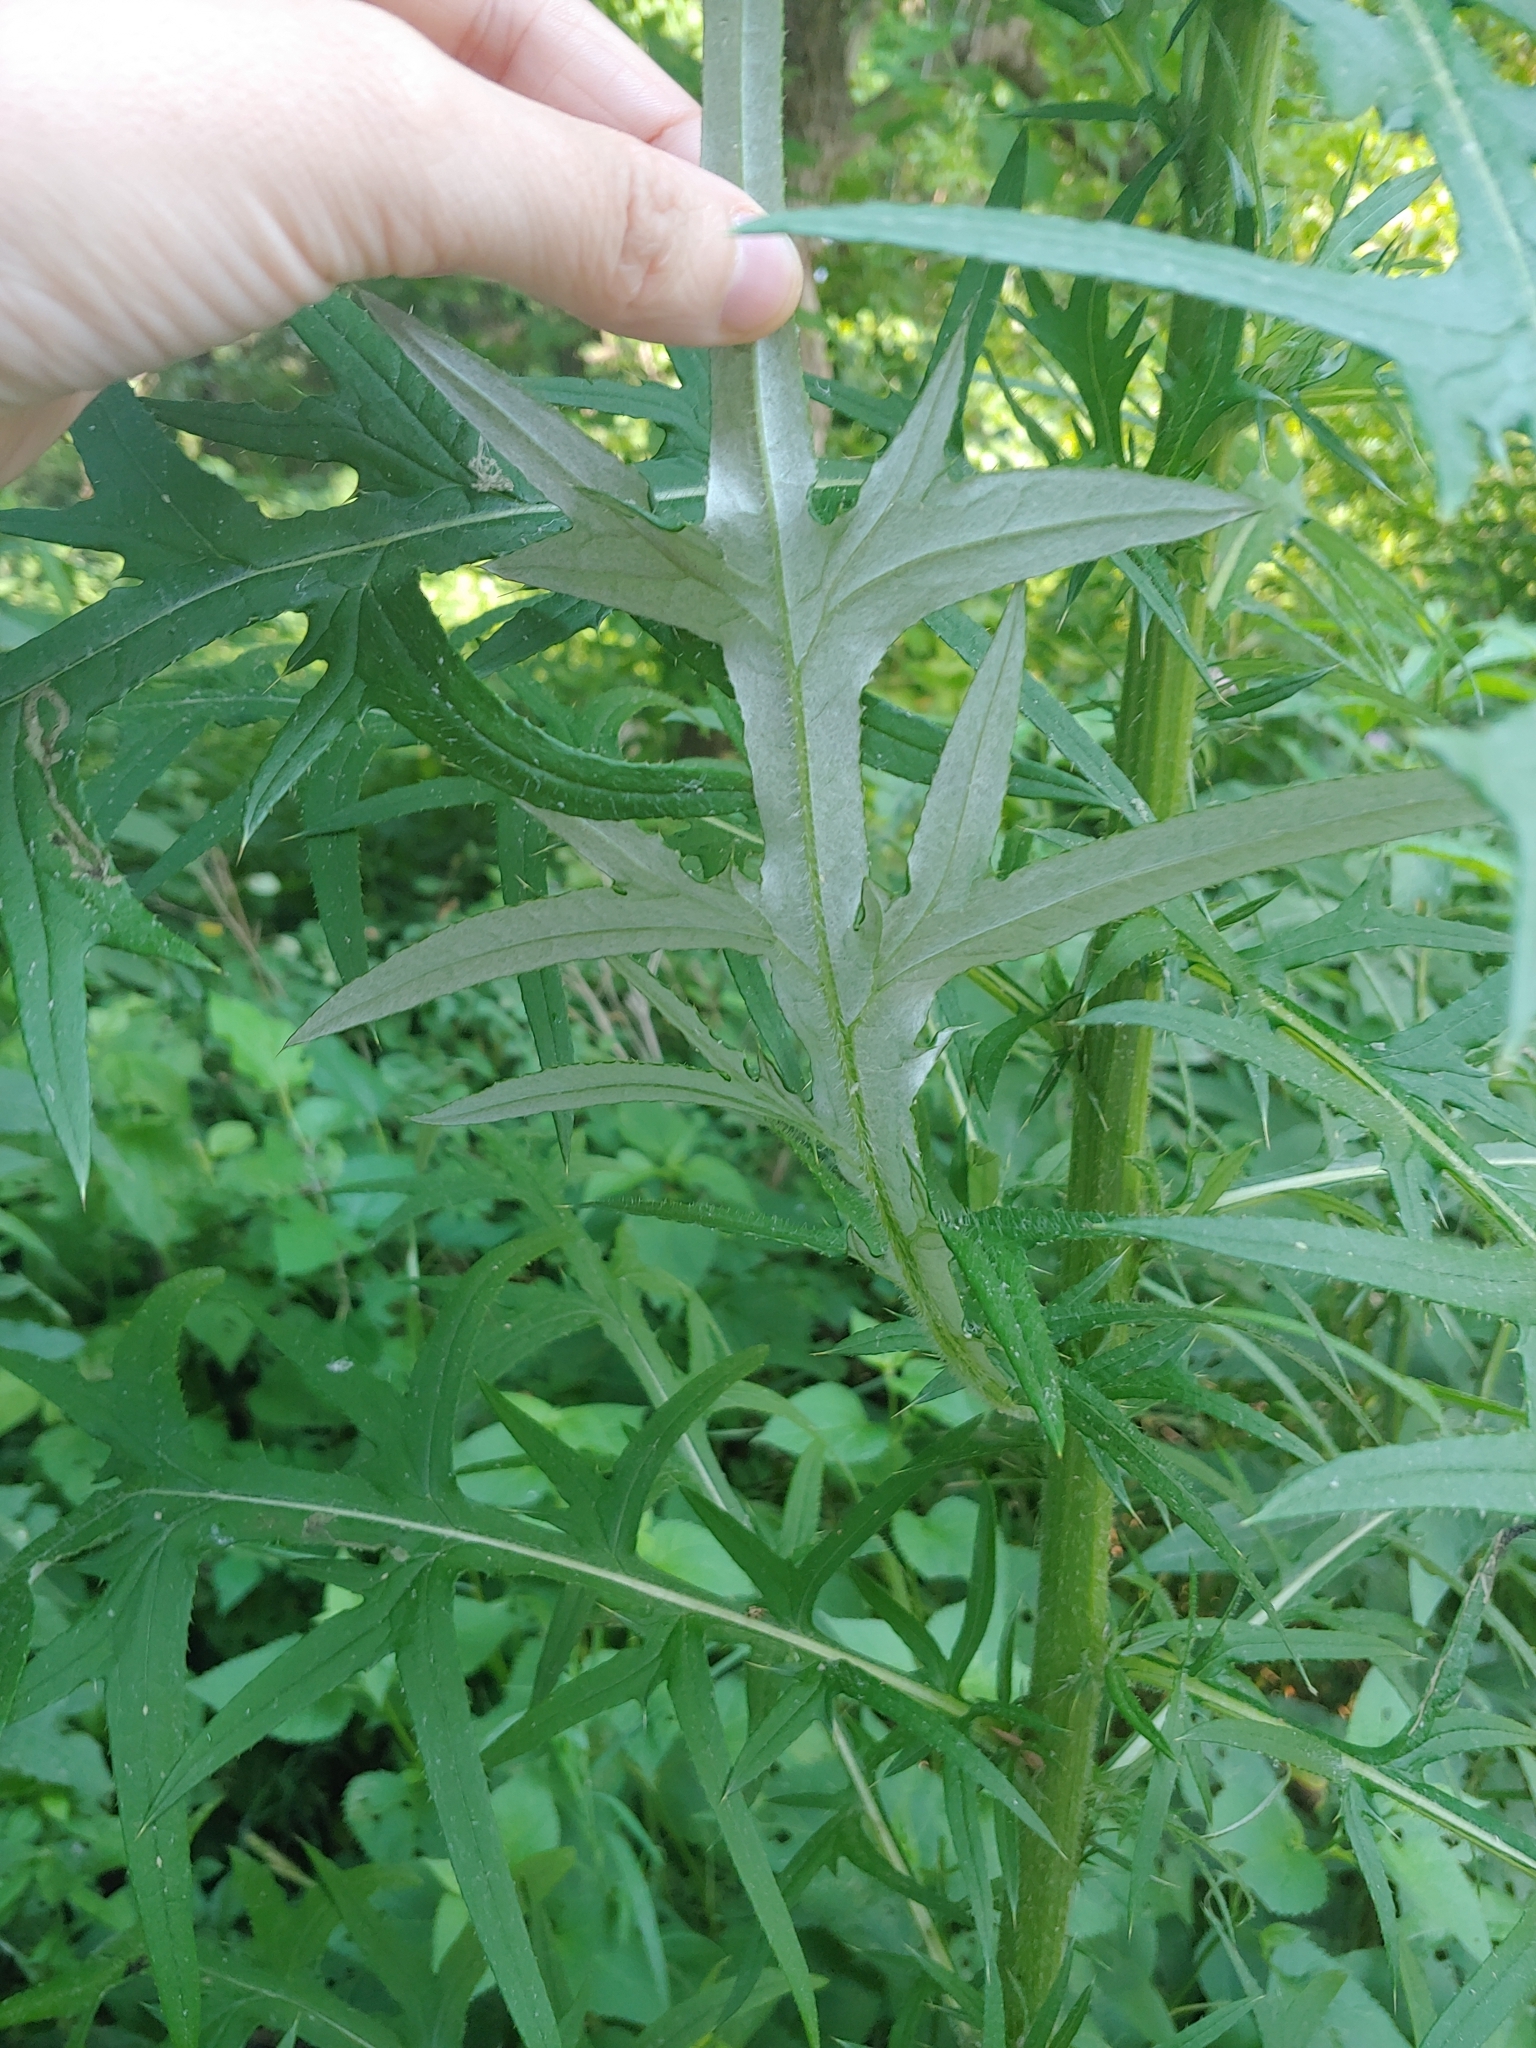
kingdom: Plantae
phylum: Tracheophyta
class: Magnoliopsida
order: Asterales
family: Asteraceae
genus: Cirsium
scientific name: Cirsium vulgare
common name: Bull thistle
